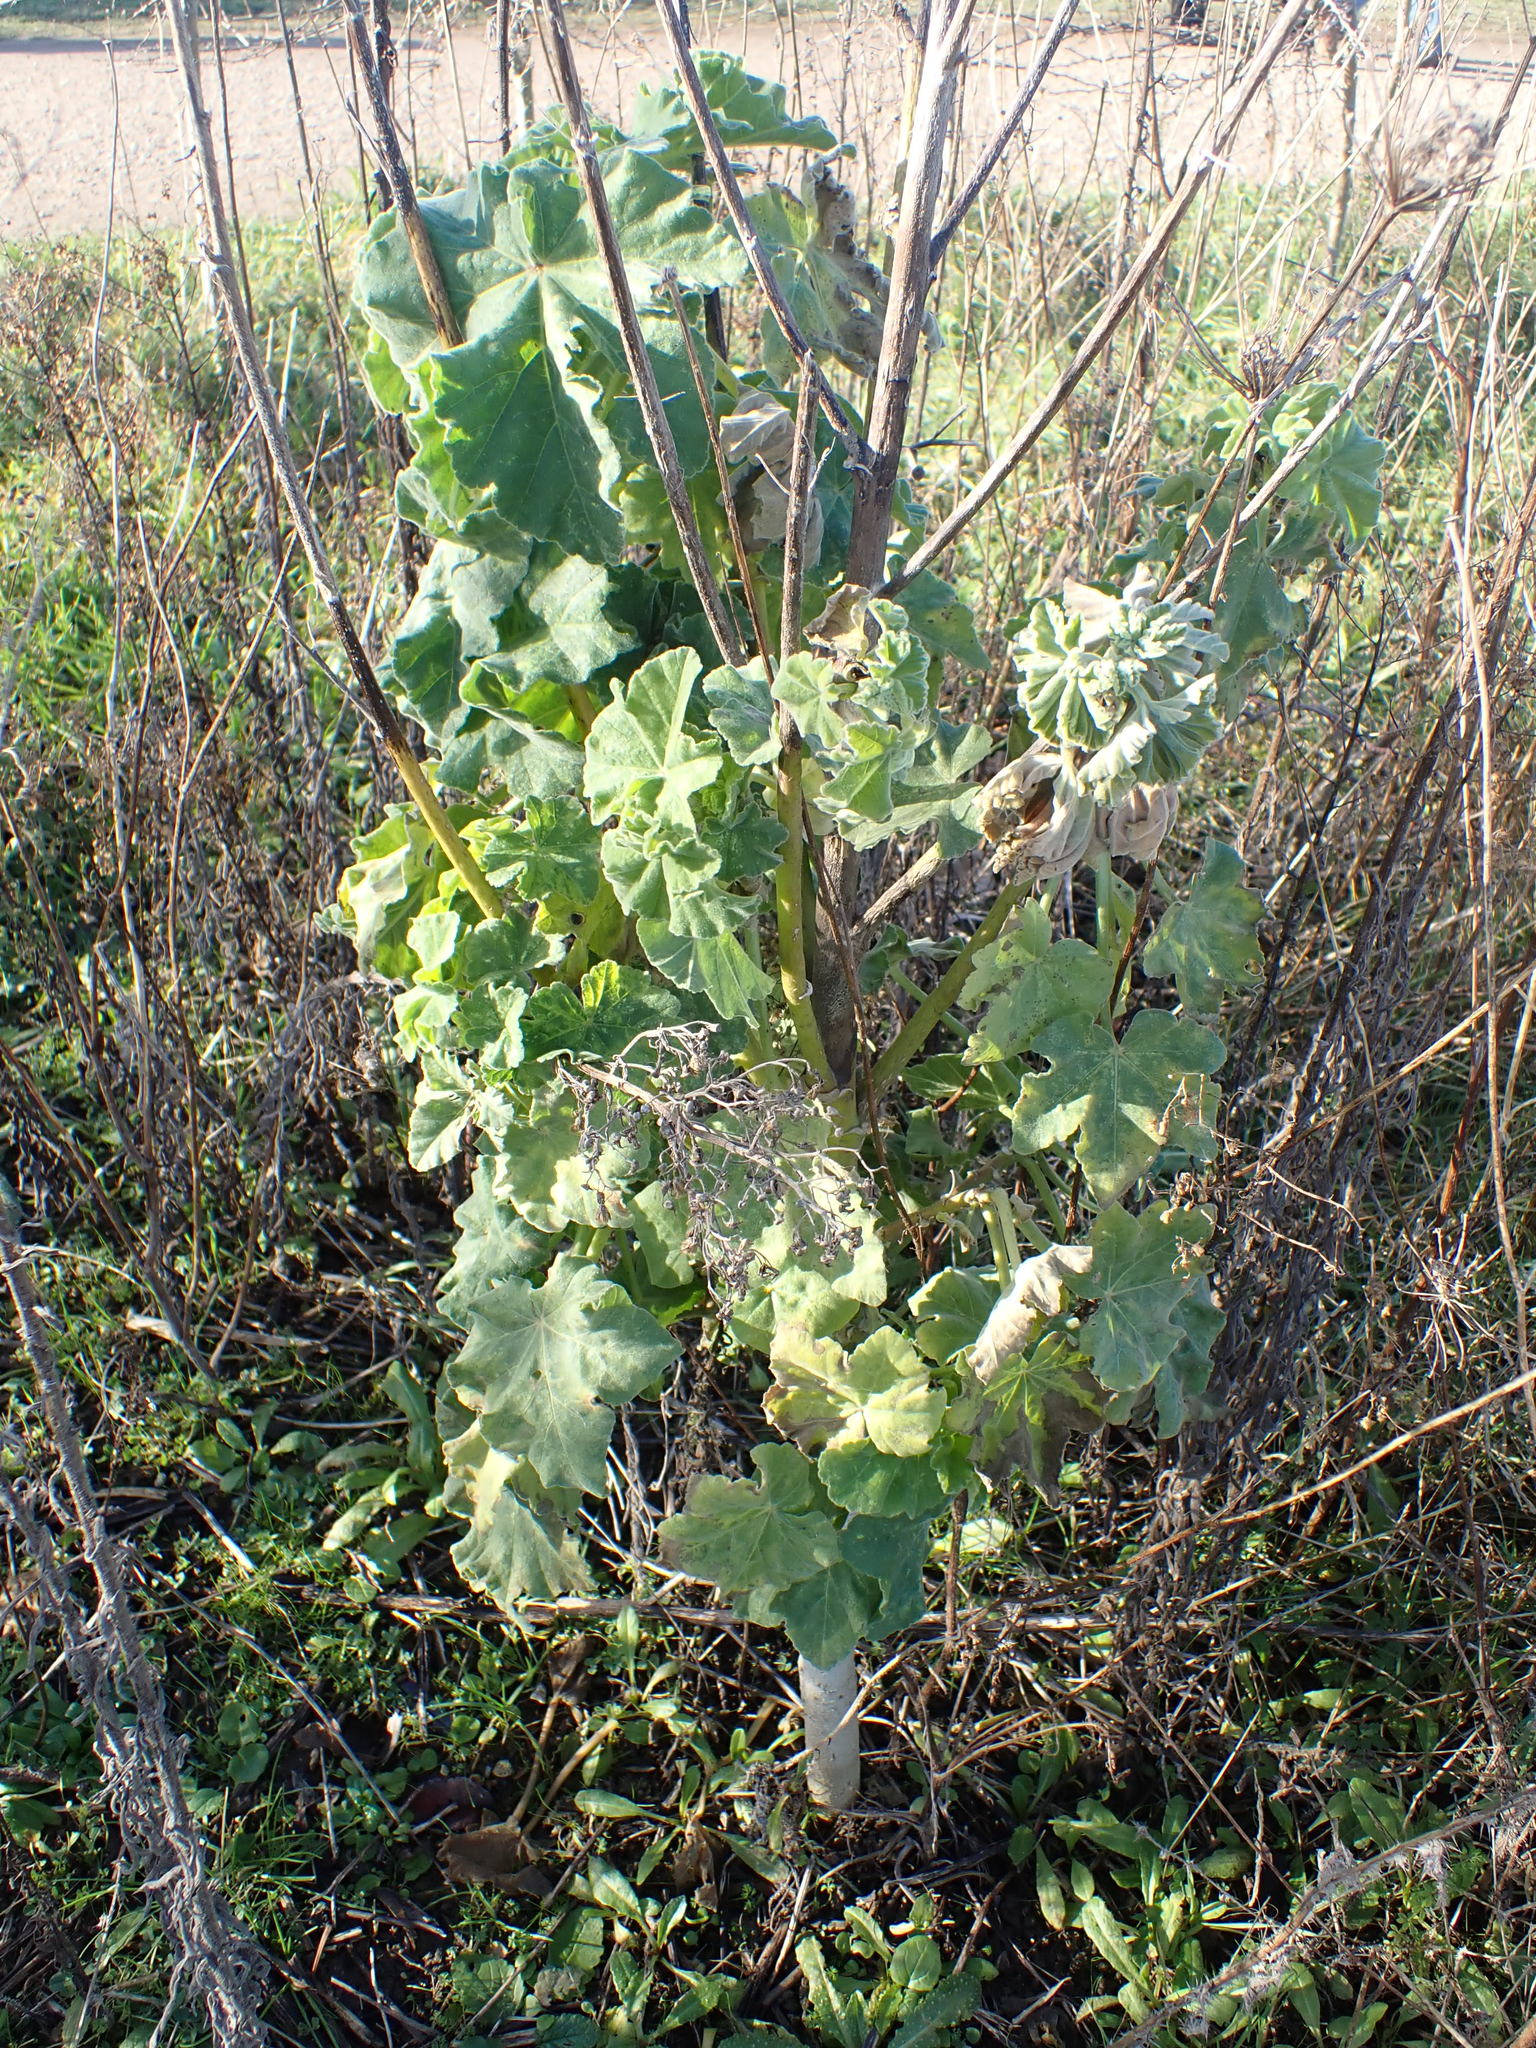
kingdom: Plantae
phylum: Tracheophyta
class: Magnoliopsida
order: Malvales
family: Malvaceae
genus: Malva
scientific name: Malva arborea
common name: Tree mallow
